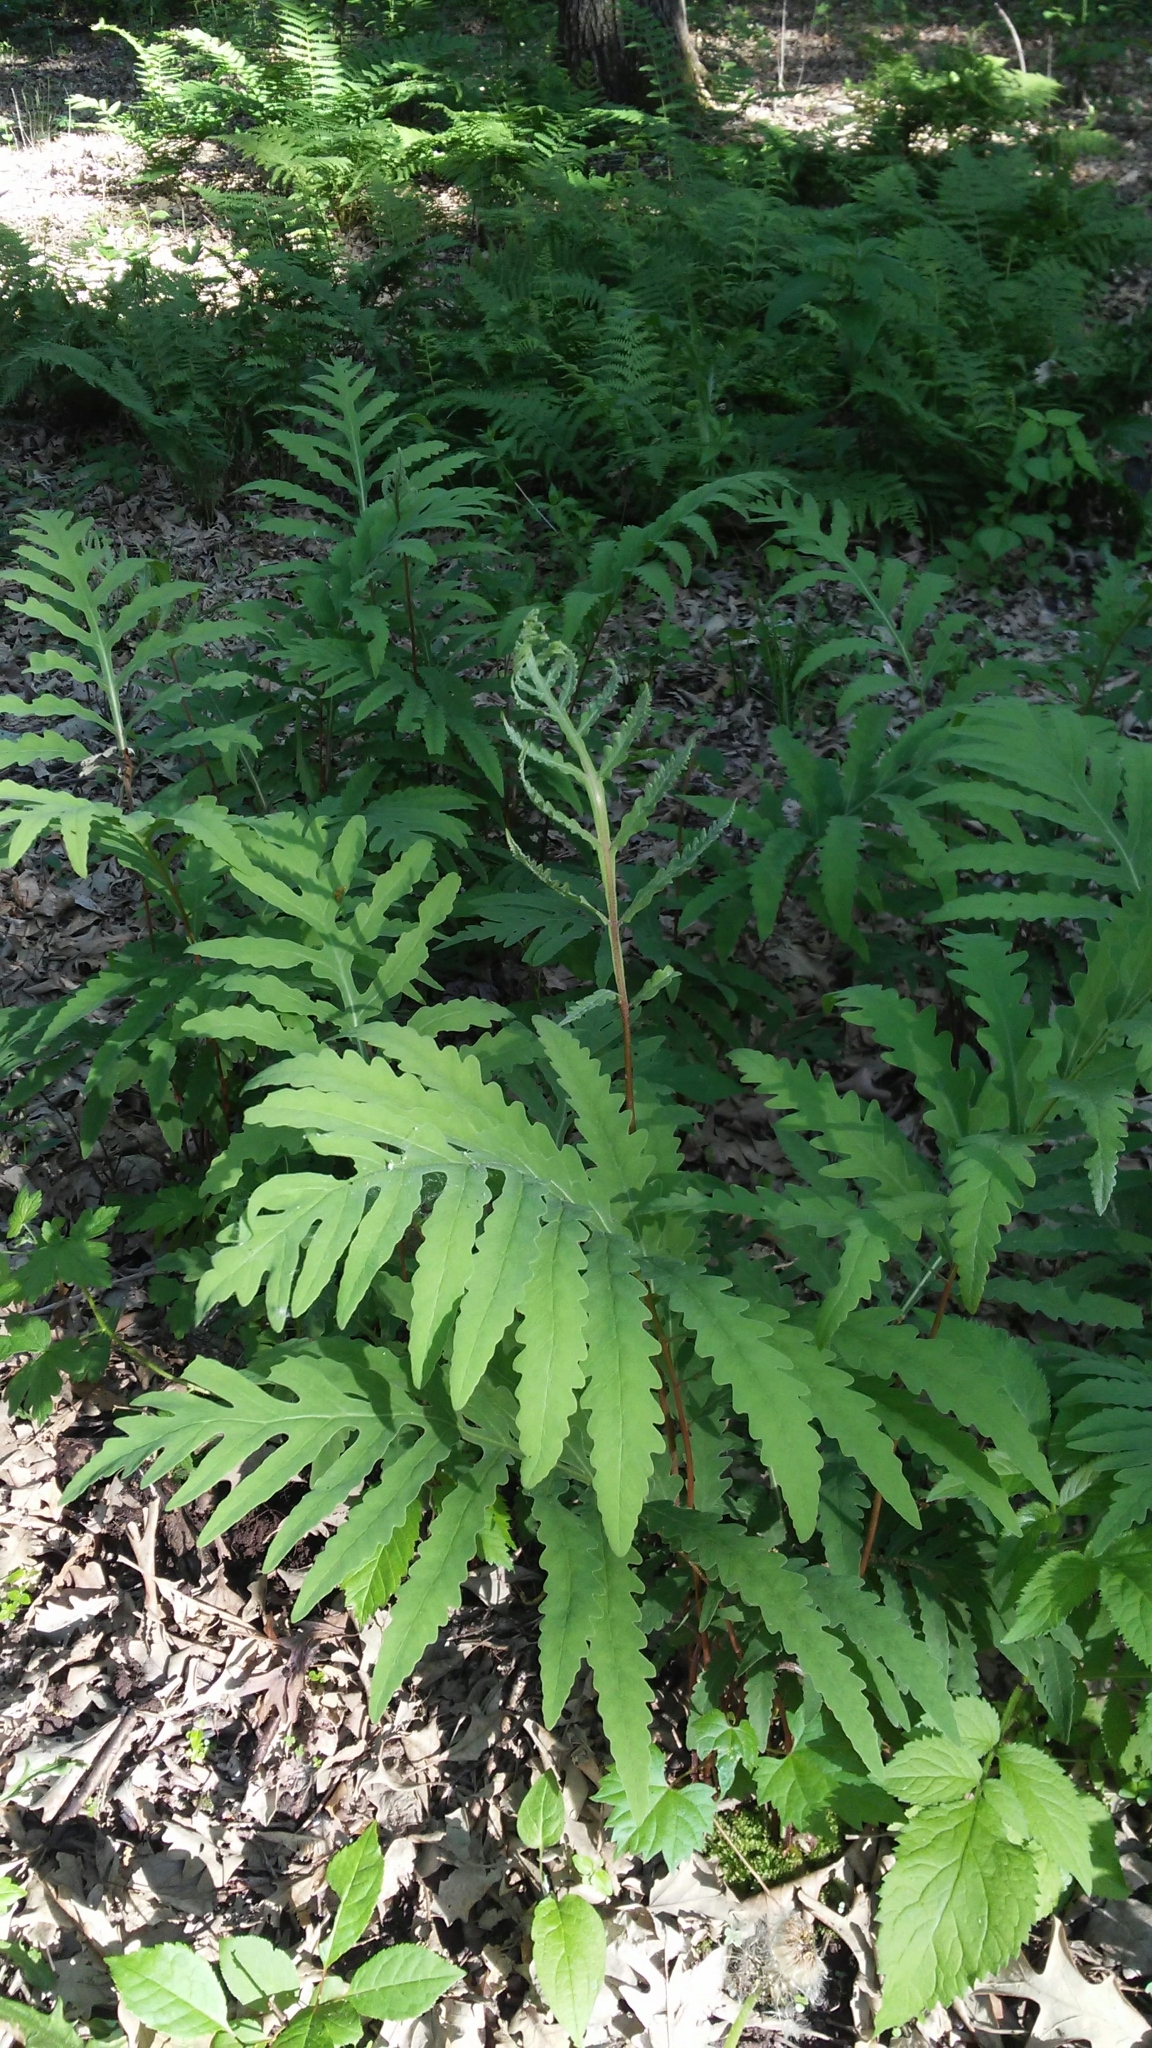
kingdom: Plantae
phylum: Tracheophyta
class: Polypodiopsida
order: Polypodiales
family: Onocleaceae
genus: Onoclea
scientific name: Onoclea sensibilis
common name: Sensitive fern
